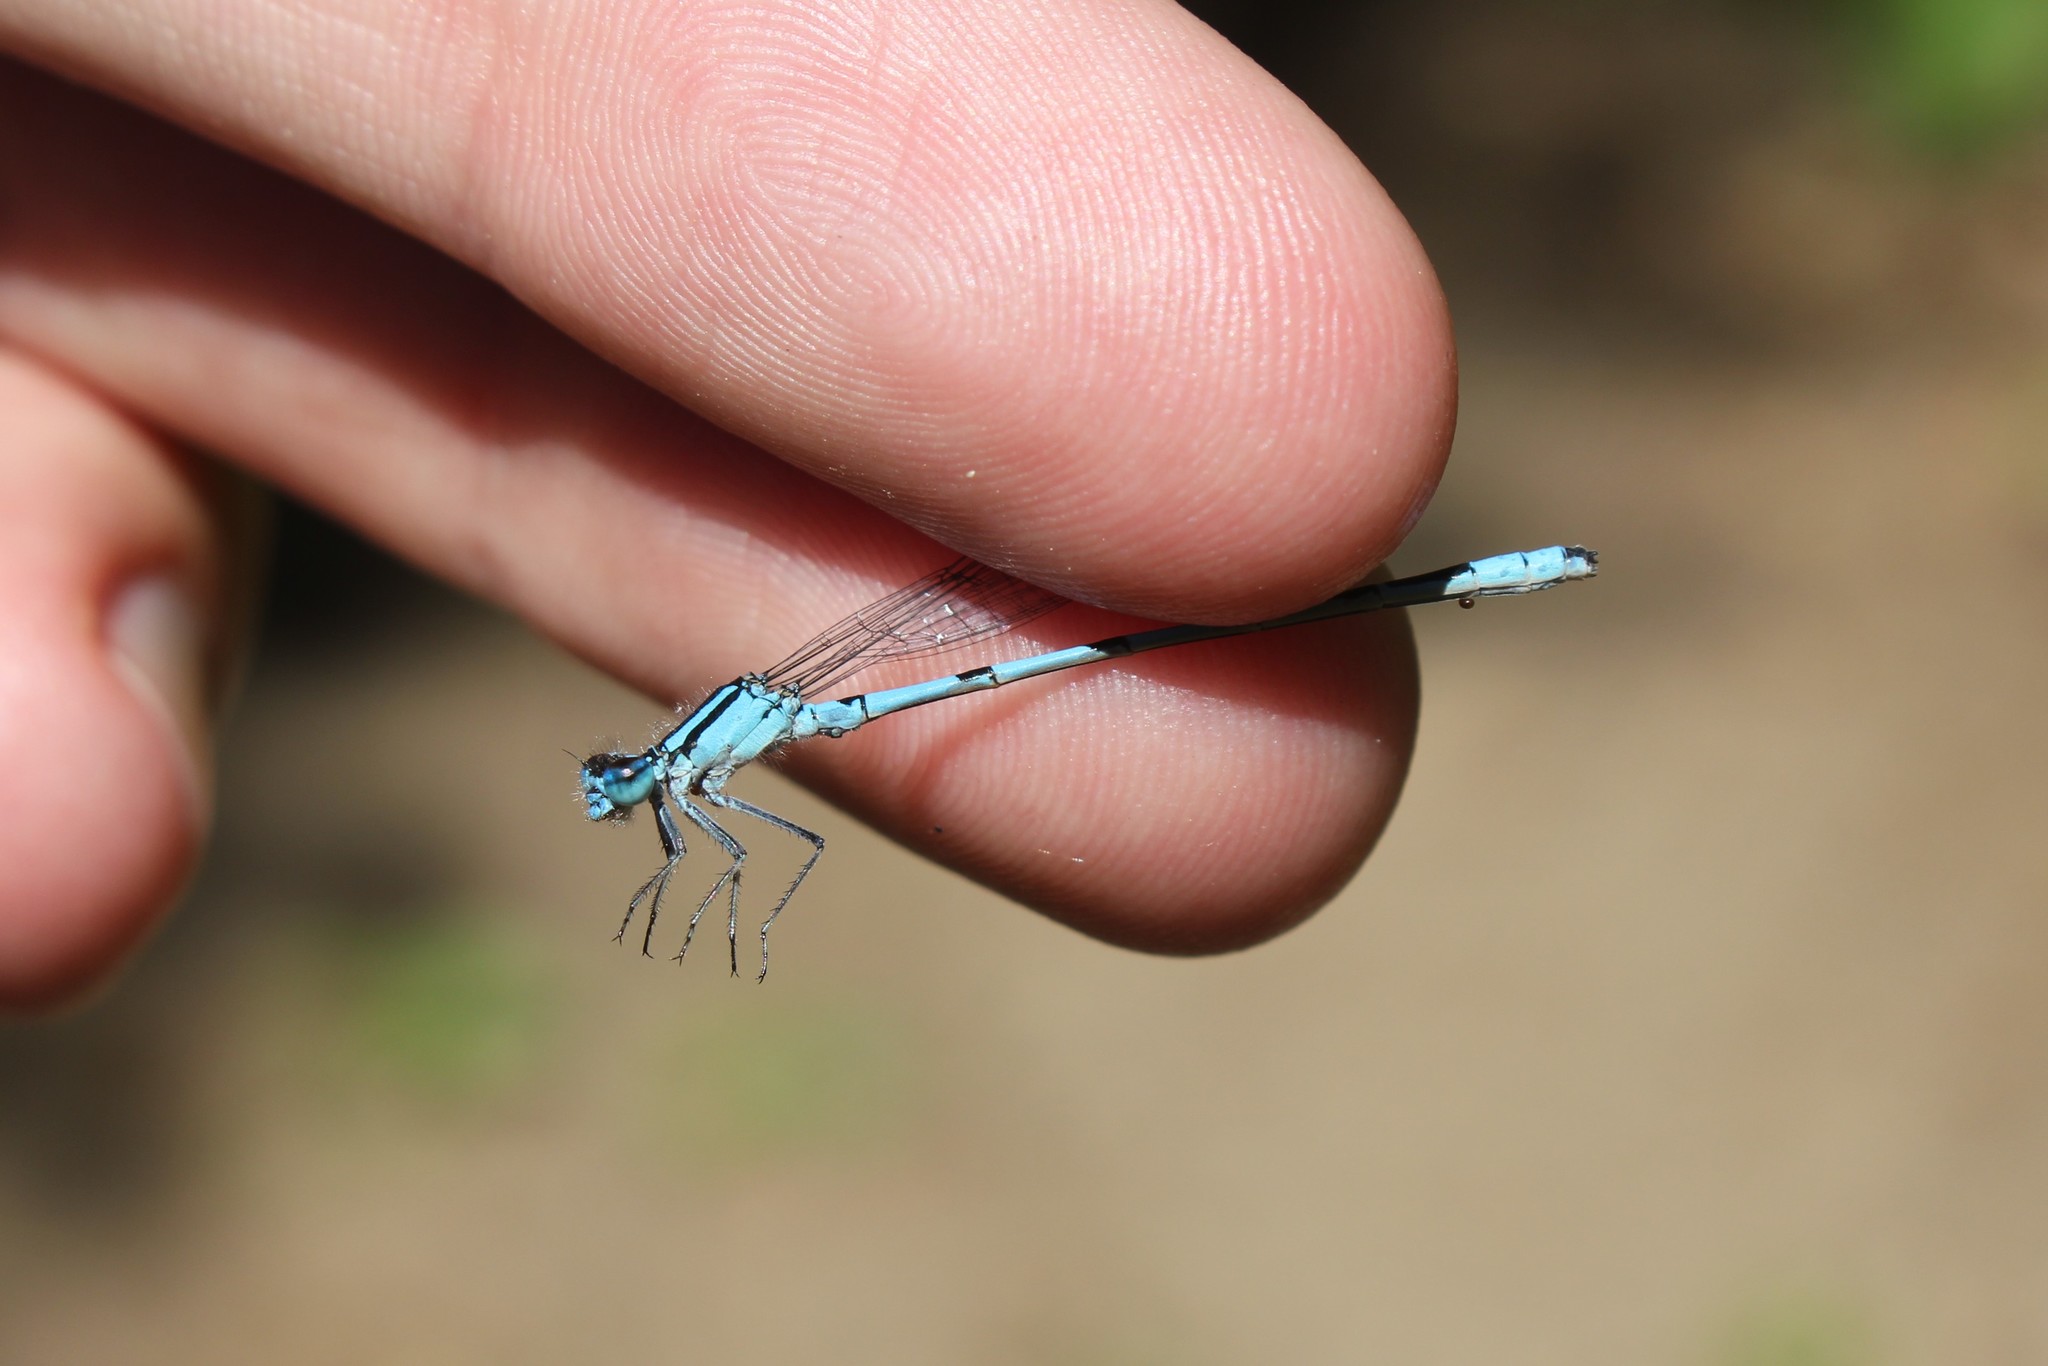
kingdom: Animalia
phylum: Arthropoda
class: Insecta
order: Odonata
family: Coenagrionidae
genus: Enallagma
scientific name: Enallagma ebrium
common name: Marsh bluet
